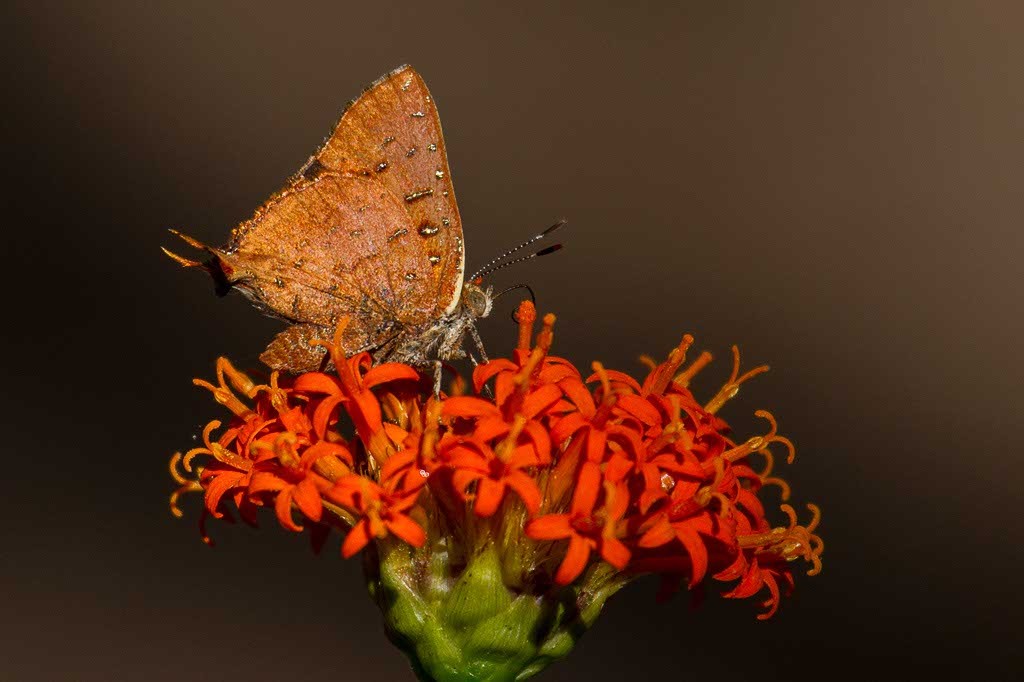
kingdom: Animalia
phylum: Arthropoda
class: Insecta
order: Lepidoptera
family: Lycaenidae
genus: Axiocerses
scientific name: Axiocerses perion
